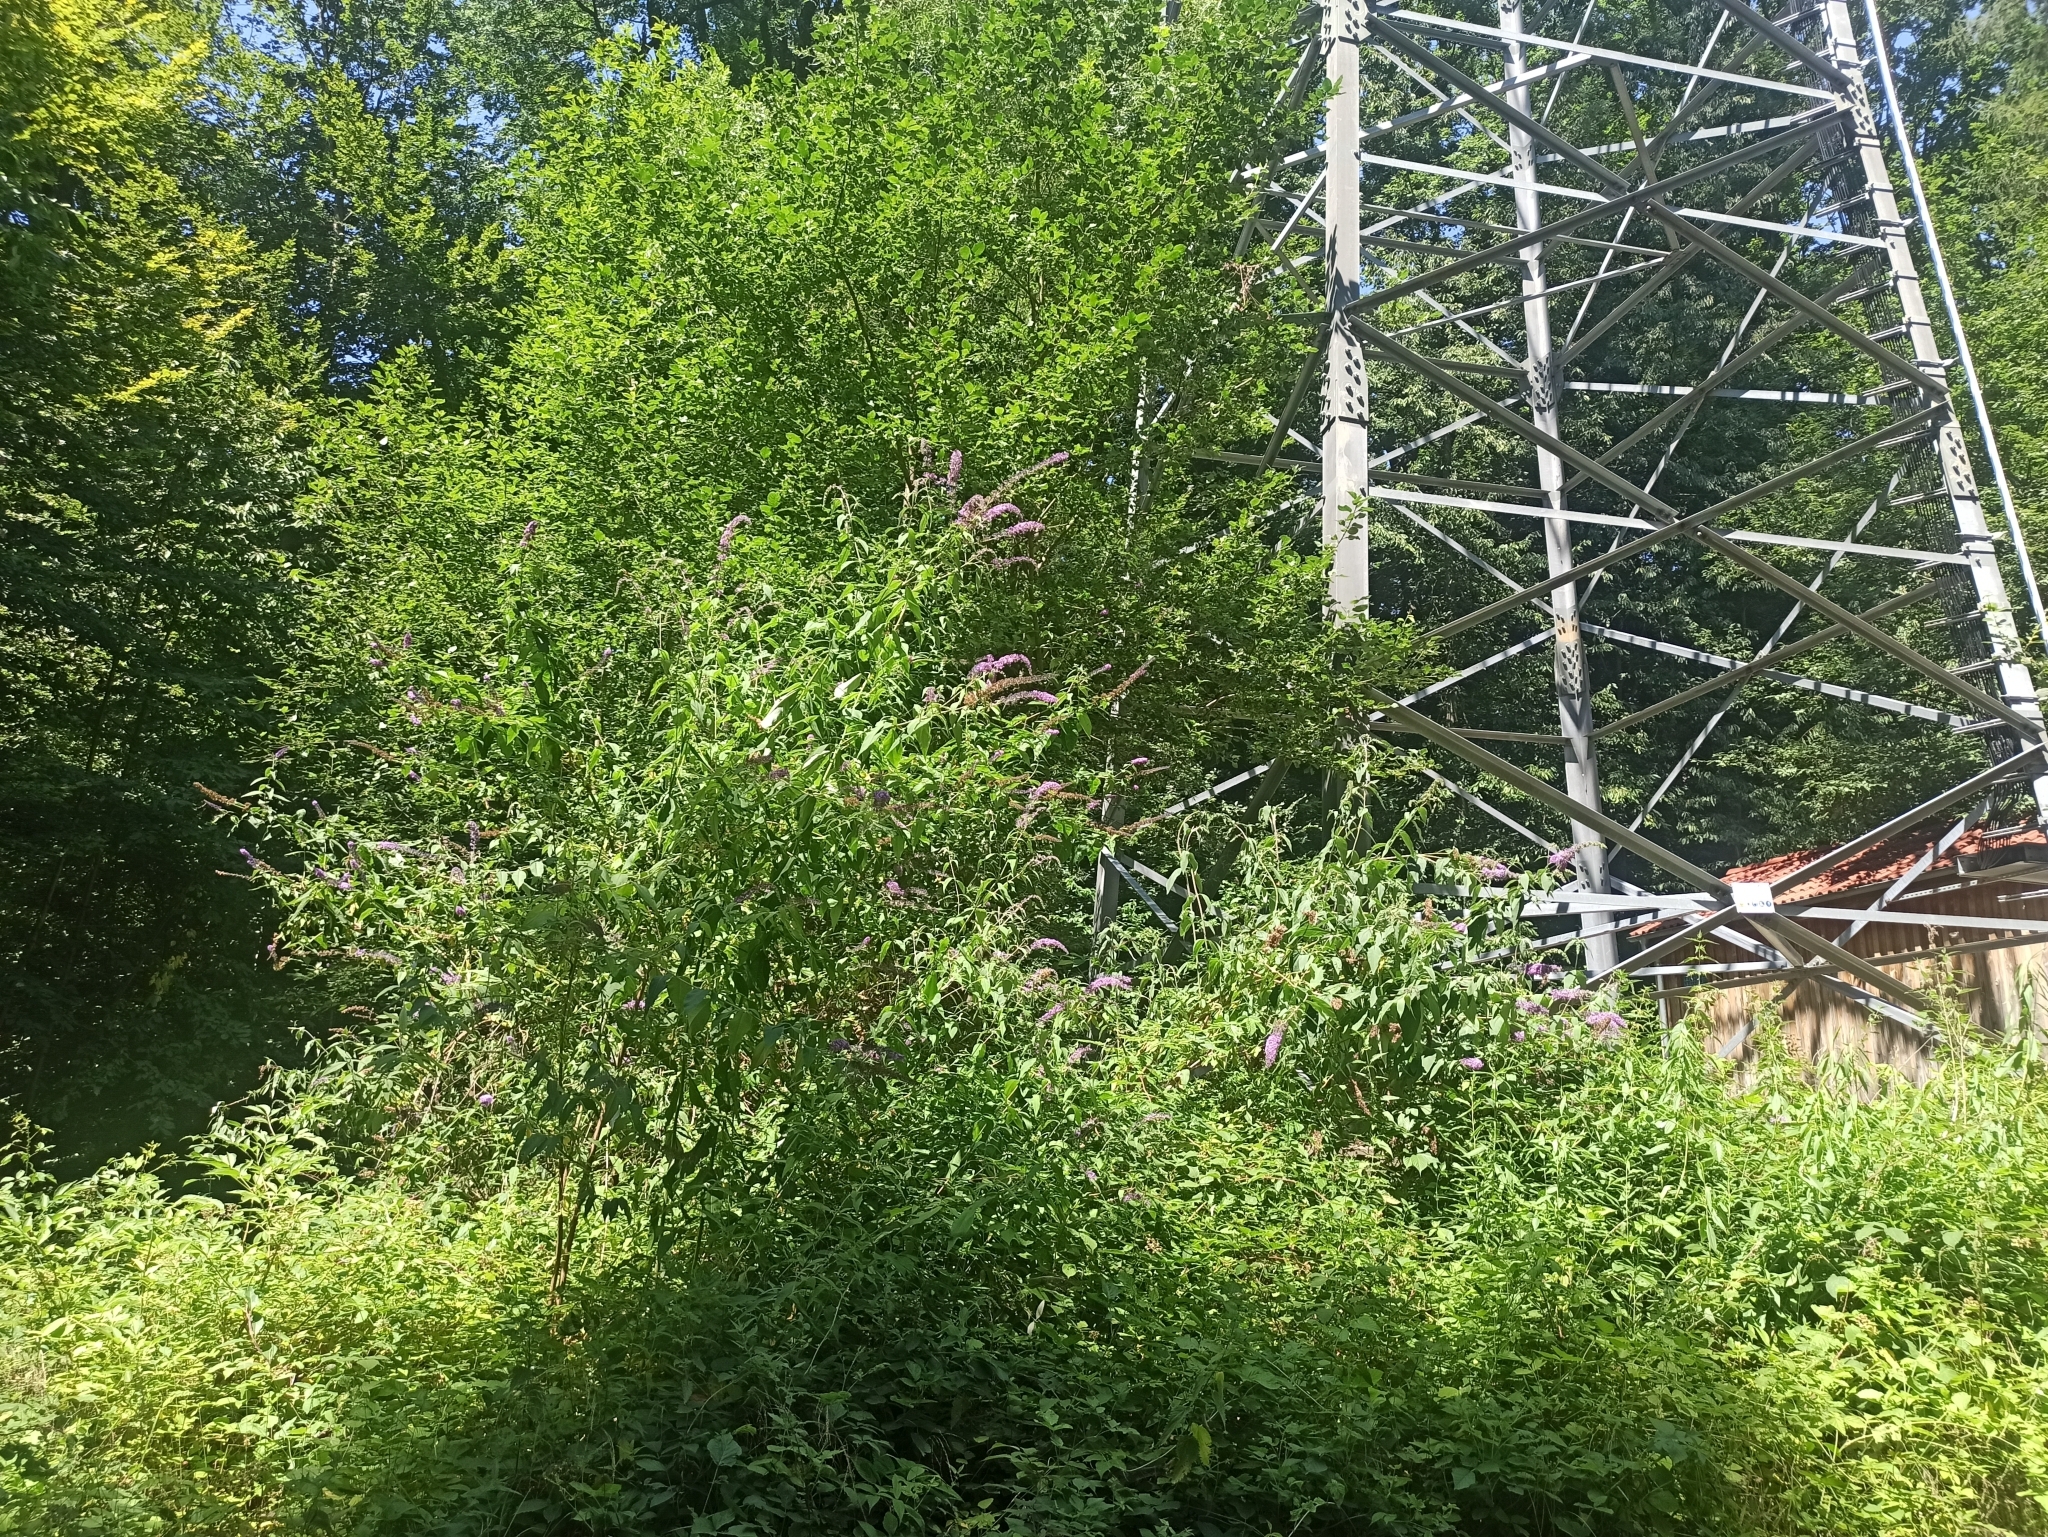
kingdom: Plantae
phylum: Tracheophyta
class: Magnoliopsida
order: Lamiales
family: Scrophulariaceae
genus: Buddleja
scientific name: Buddleja davidii
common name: Butterfly-bush
